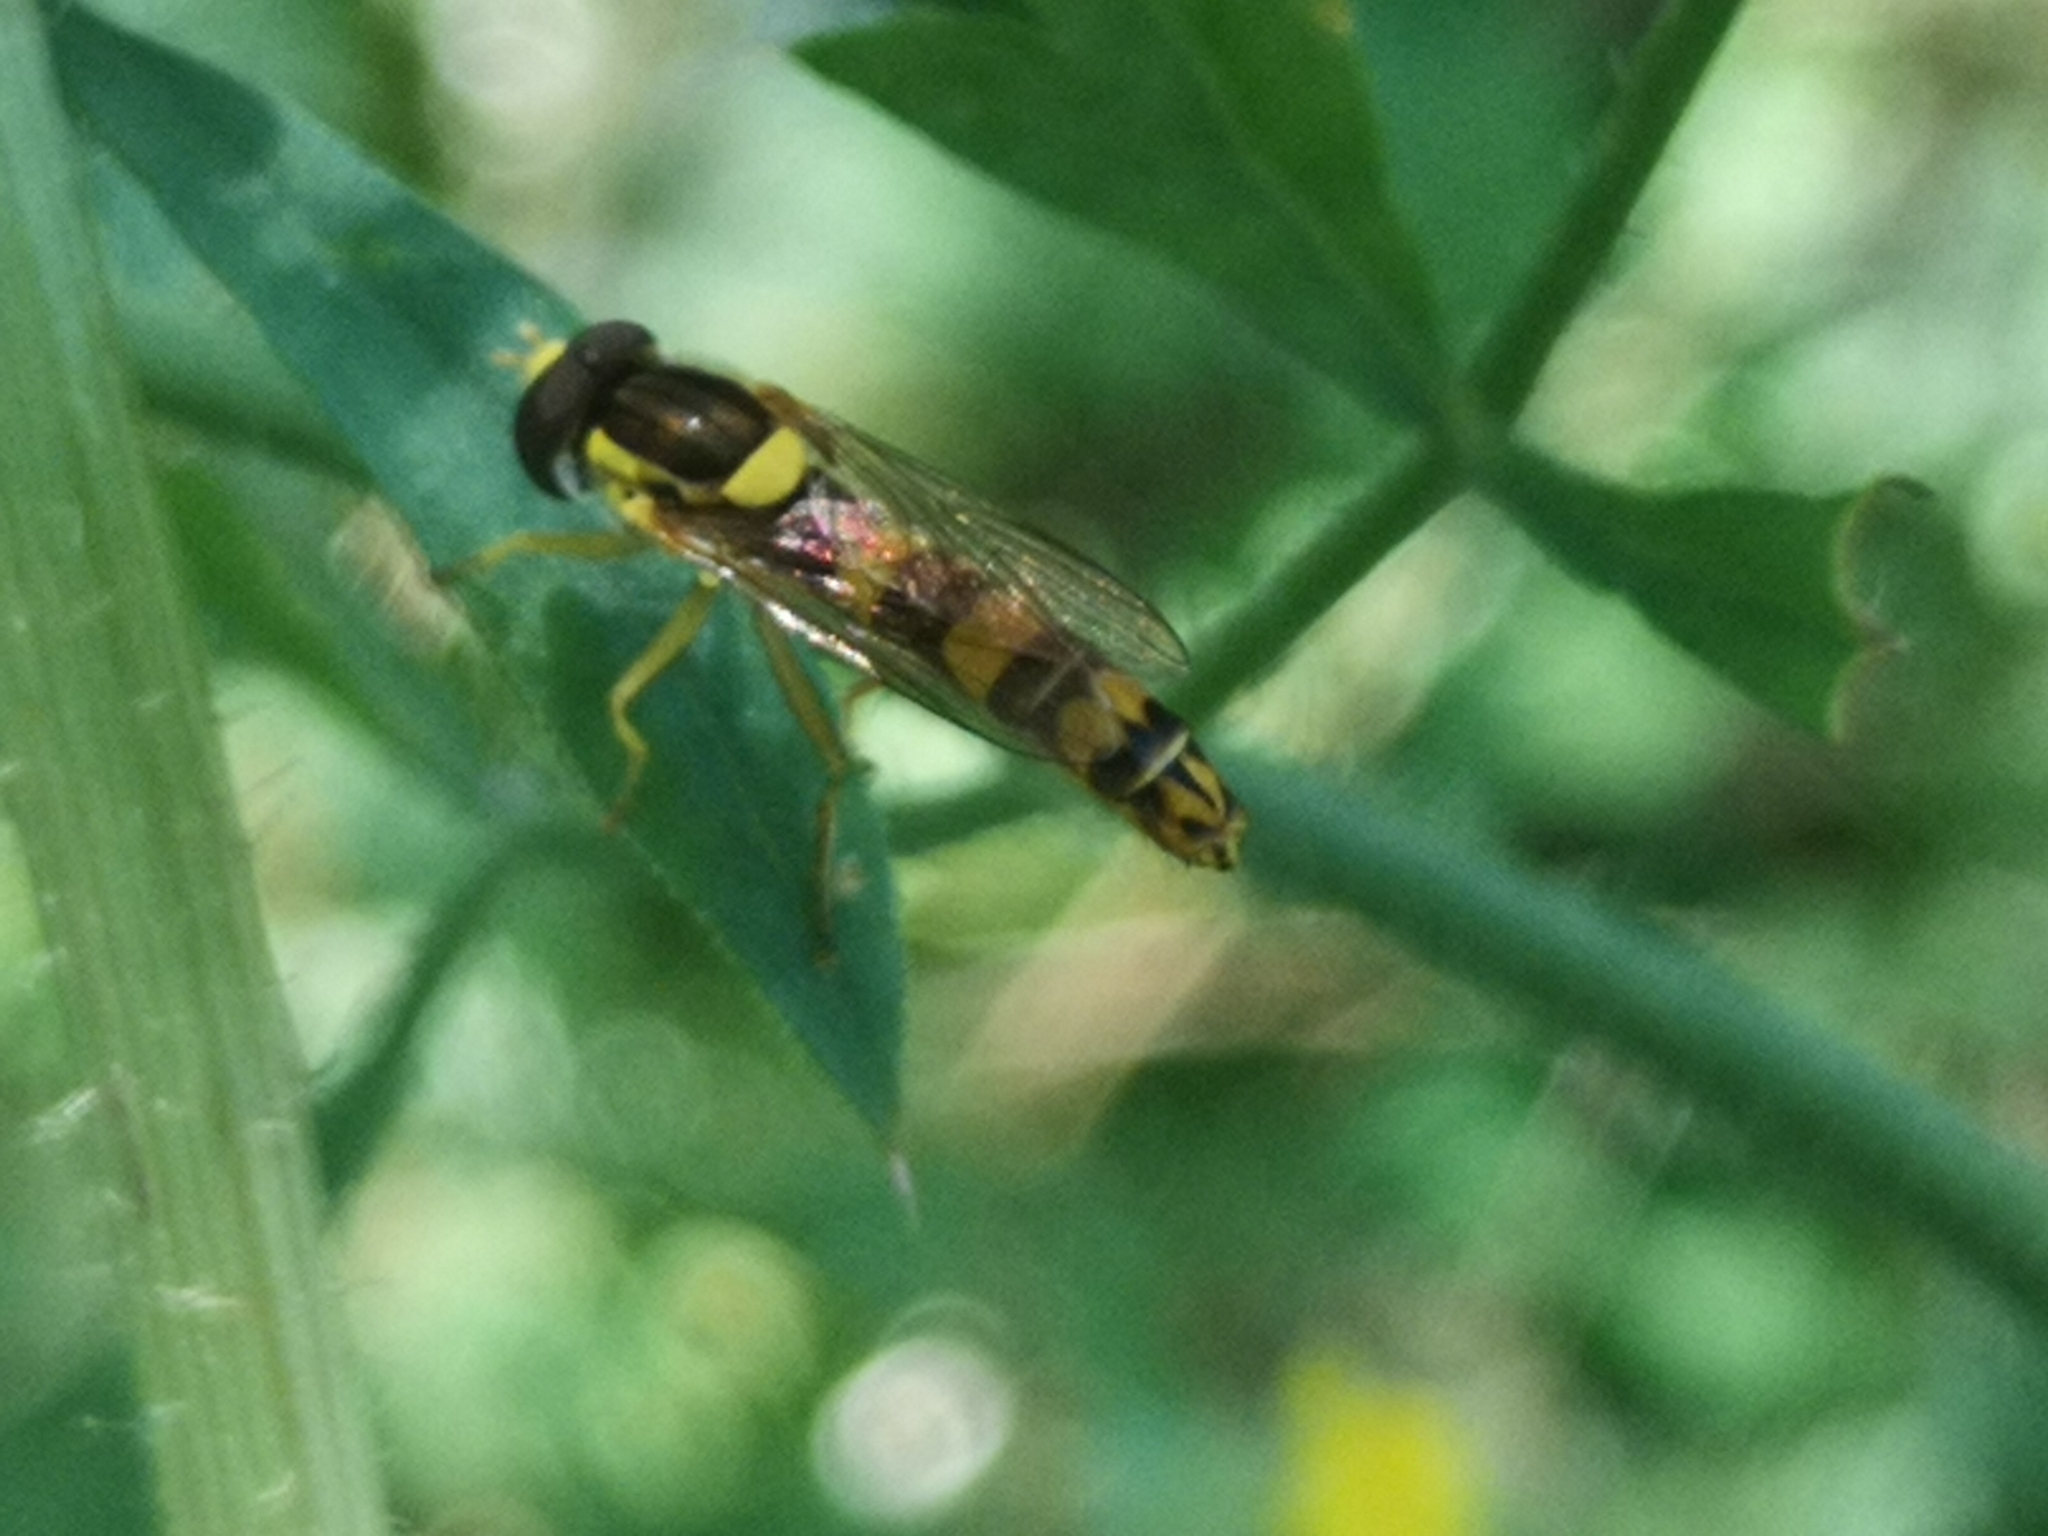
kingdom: Animalia
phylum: Arthropoda
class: Insecta
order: Diptera
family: Syrphidae
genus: Sphaerophoria
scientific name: Sphaerophoria scripta
